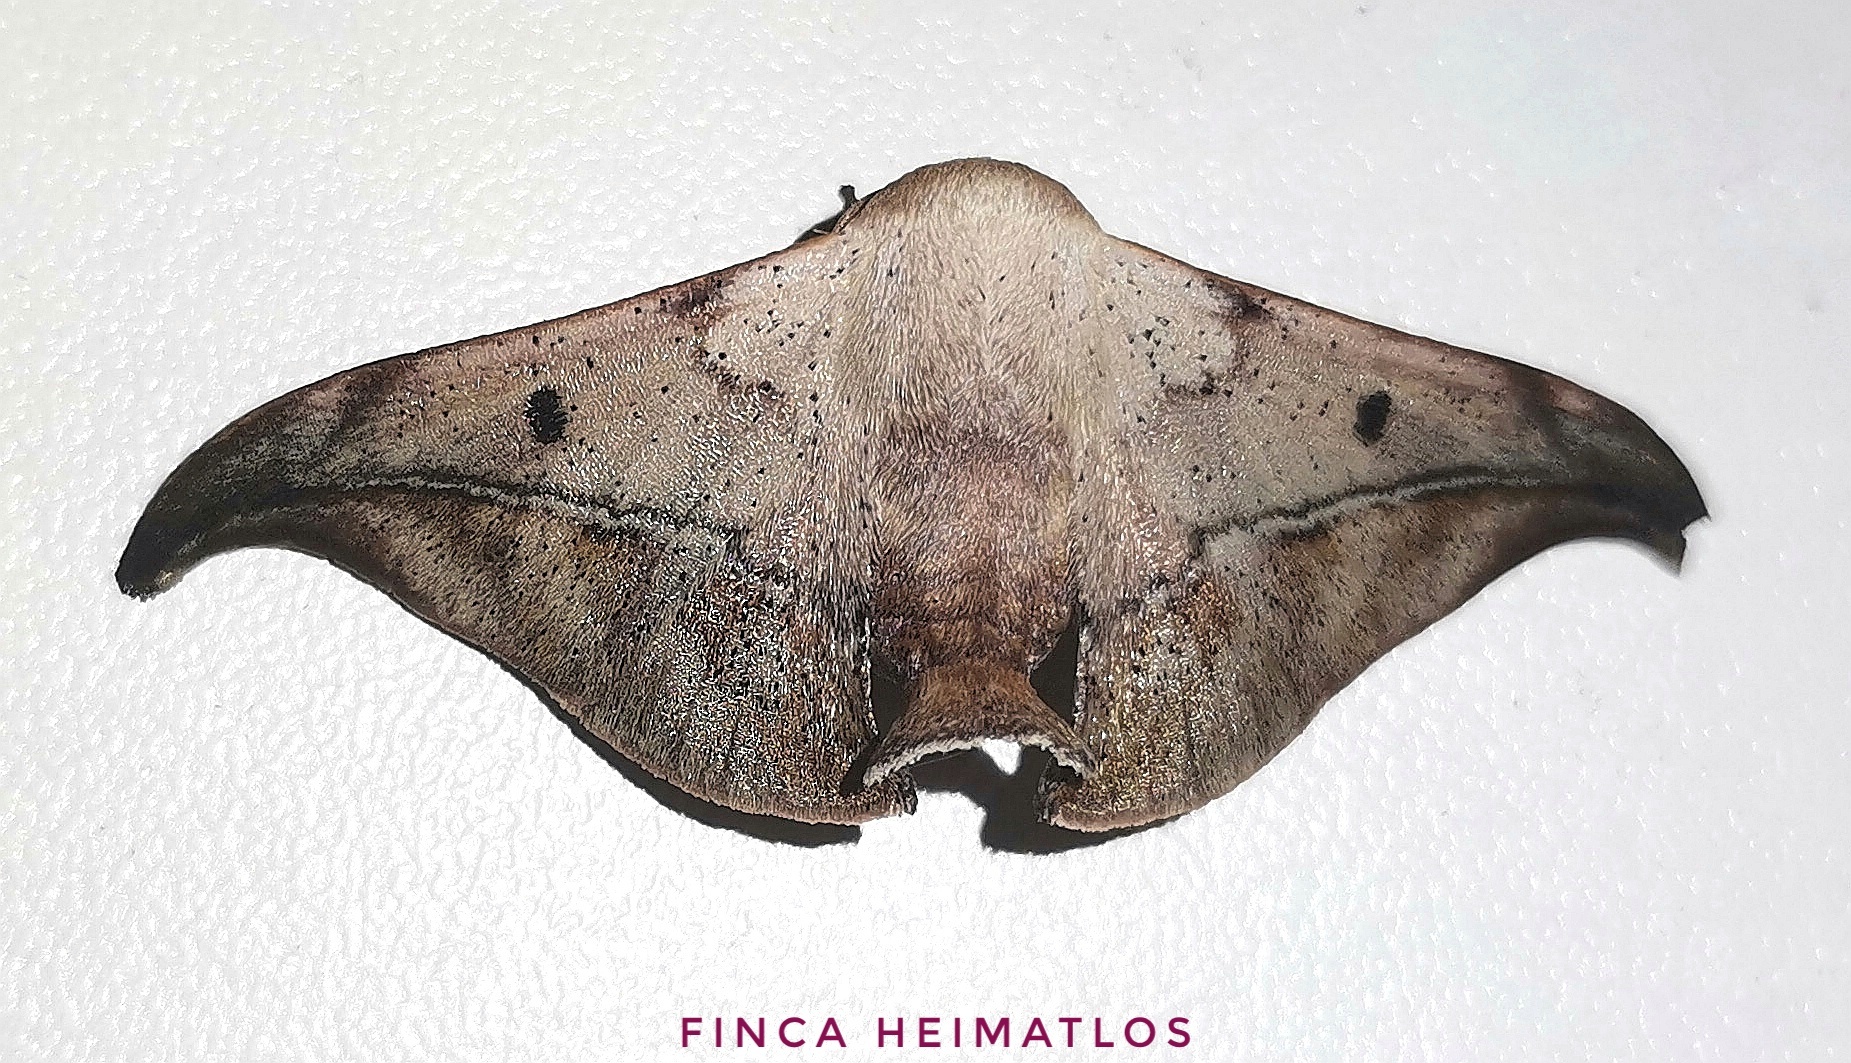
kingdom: Animalia
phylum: Arthropoda
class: Insecta
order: Lepidoptera
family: Mimallonidae
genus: Thaelia
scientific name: Thaelia beniensis
